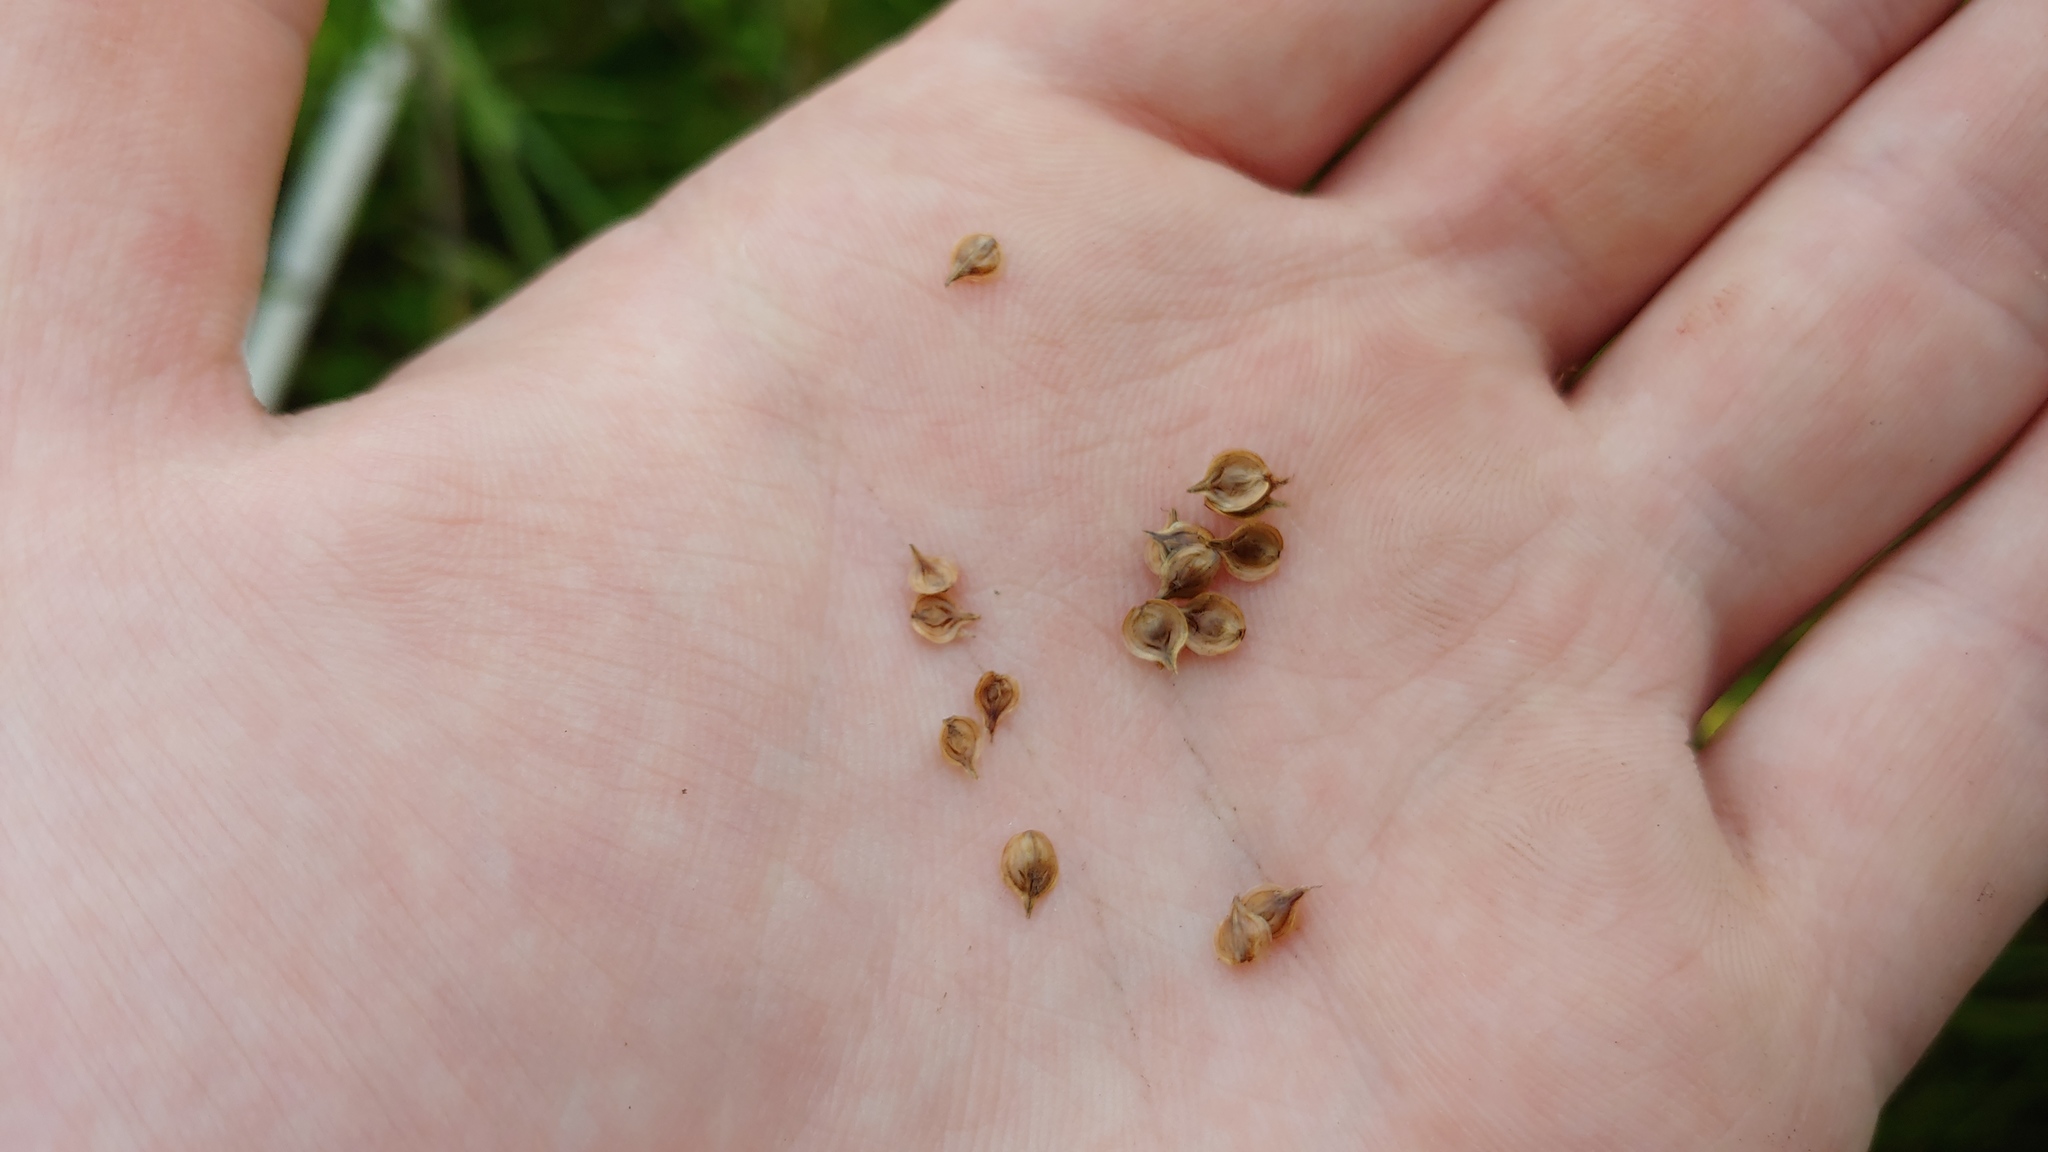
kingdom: Plantae
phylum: Tracheophyta
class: Liliopsida
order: Poales
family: Cyperaceae
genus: Carex
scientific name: Carex brevior
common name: Brevior sedge
